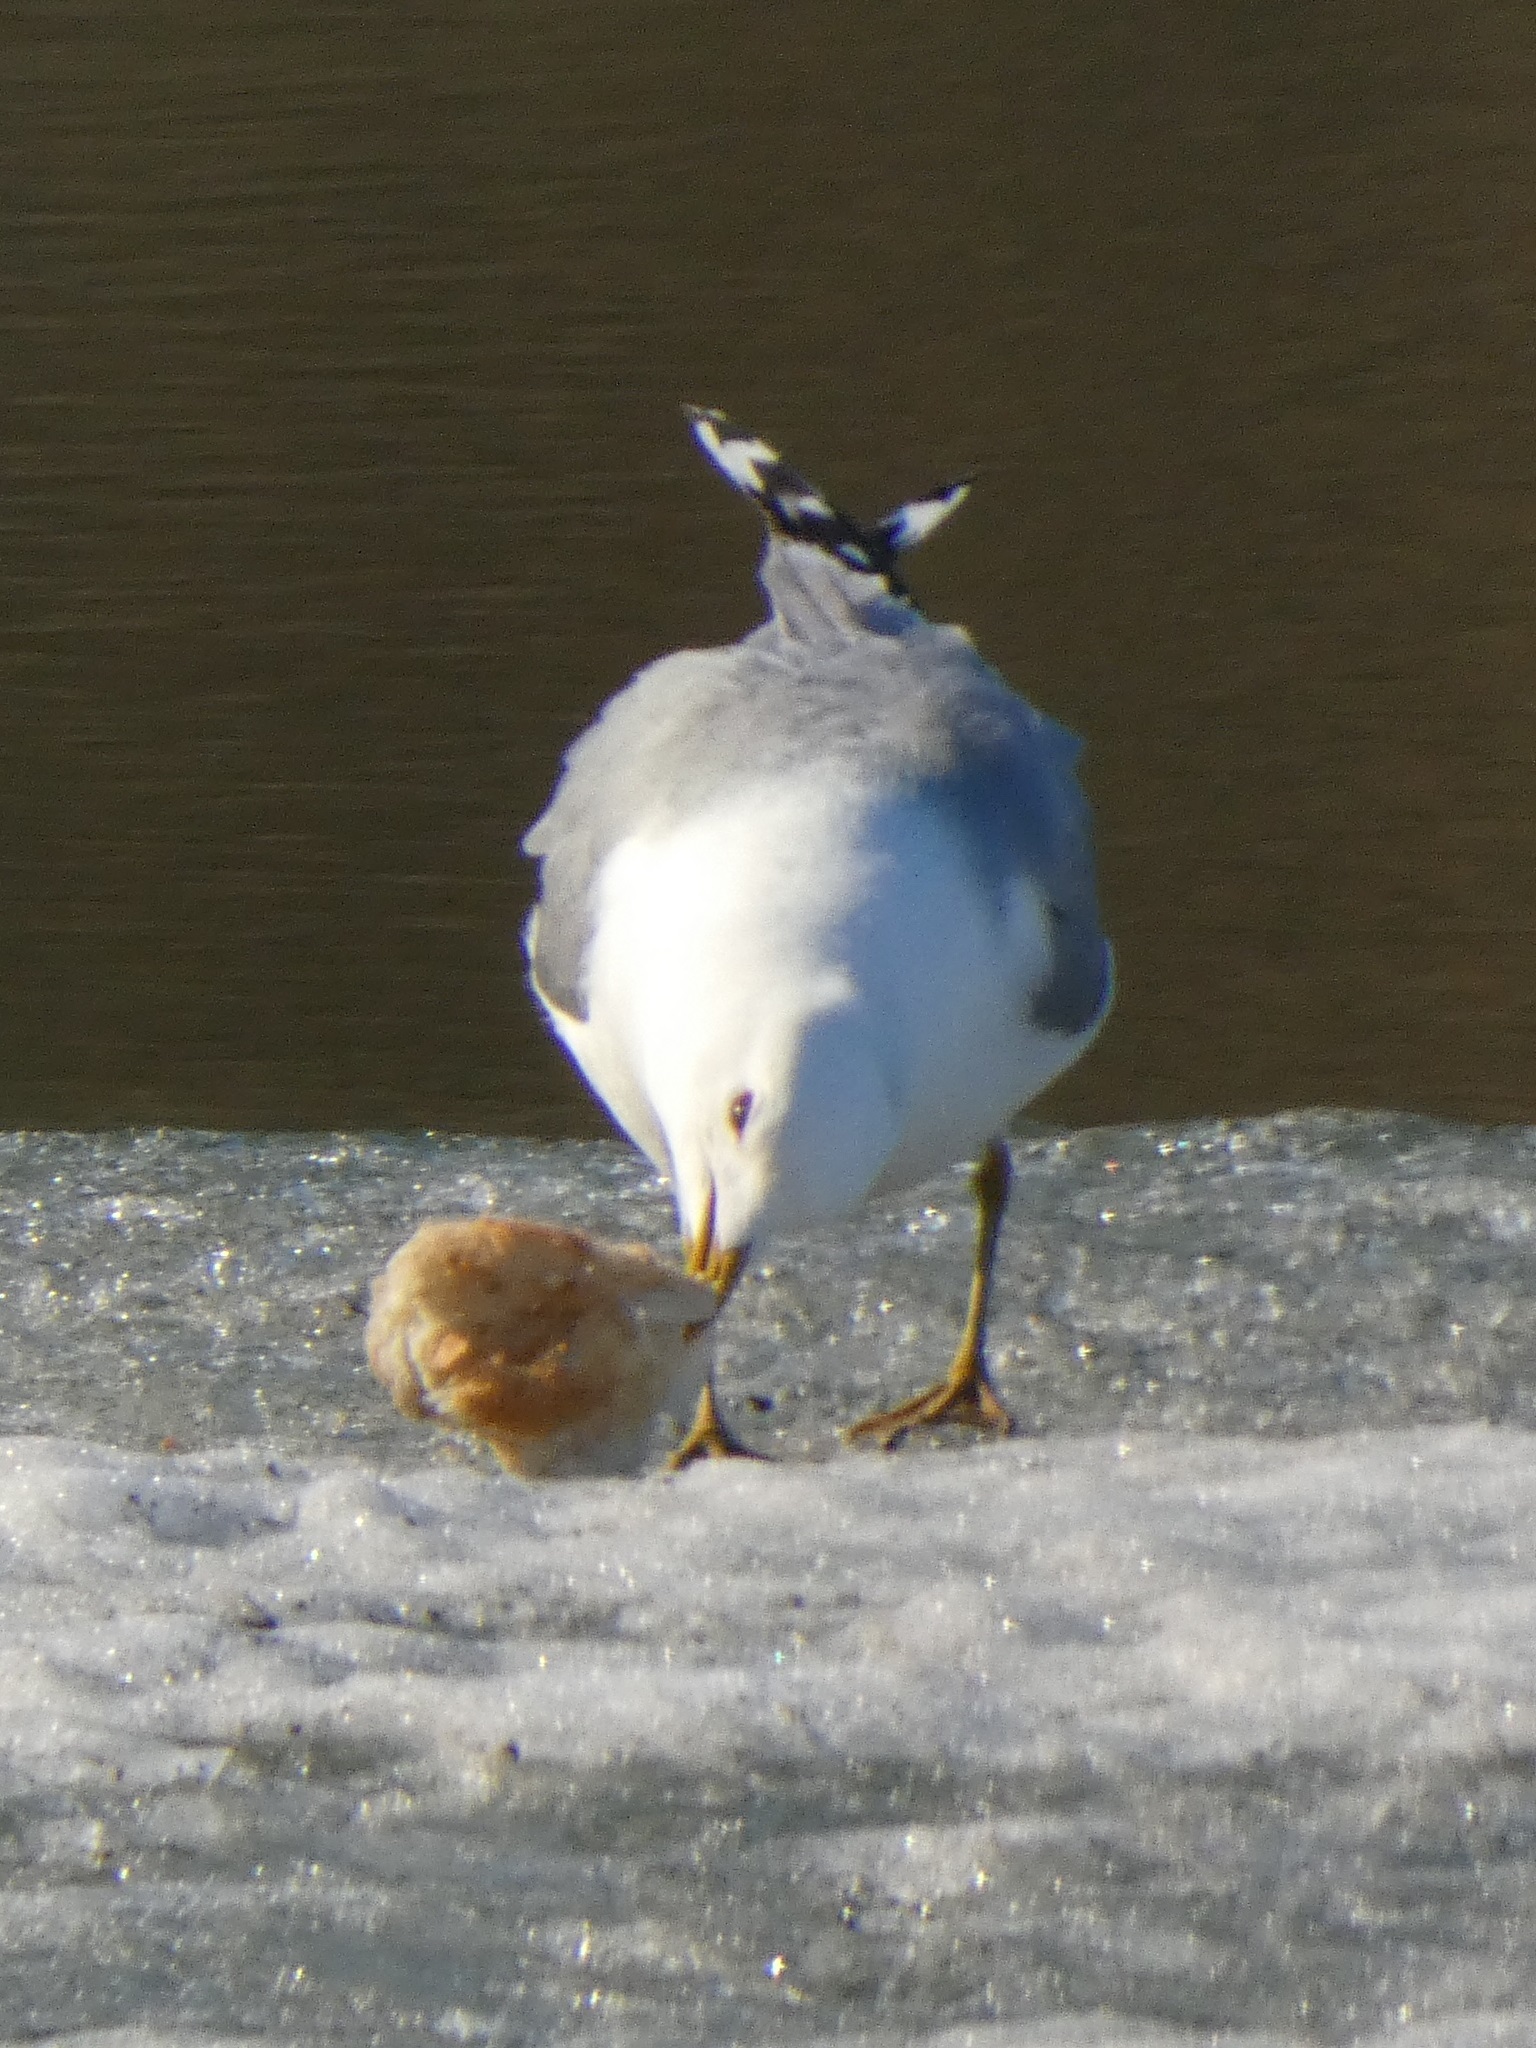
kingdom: Animalia
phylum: Chordata
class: Aves
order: Charadriiformes
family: Laridae
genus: Larus
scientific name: Larus canus
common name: Mew gull
